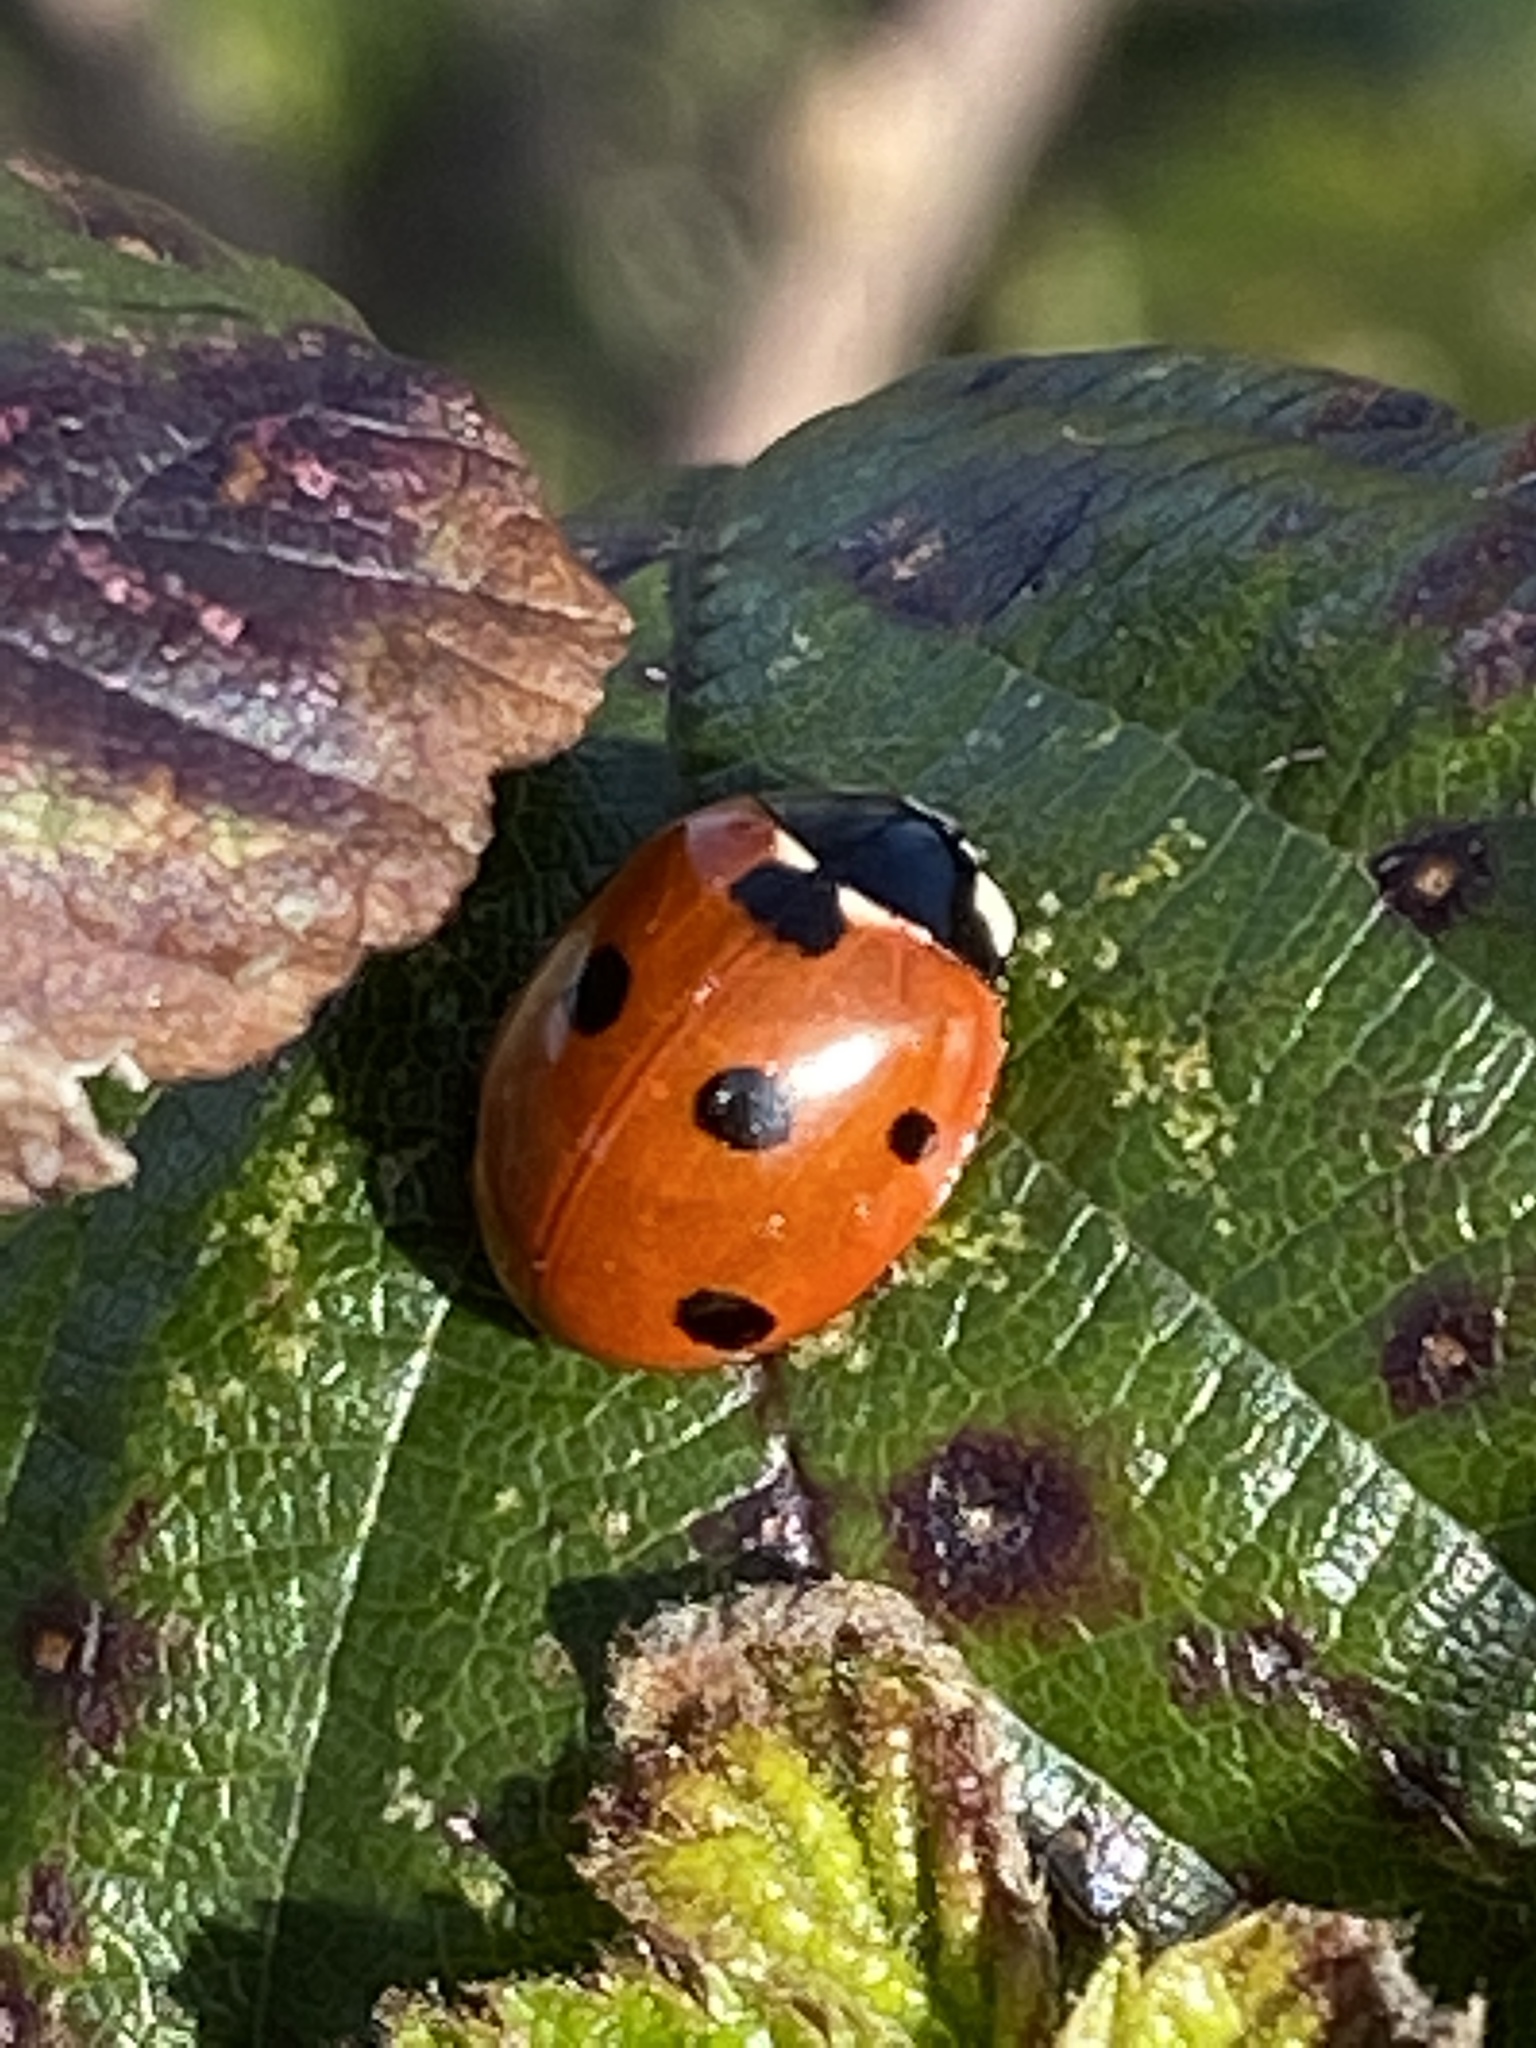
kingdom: Animalia
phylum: Arthropoda
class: Insecta
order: Coleoptera
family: Coccinellidae
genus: Coccinella
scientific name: Coccinella septempunctata
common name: Sevenspotted lady beetle
